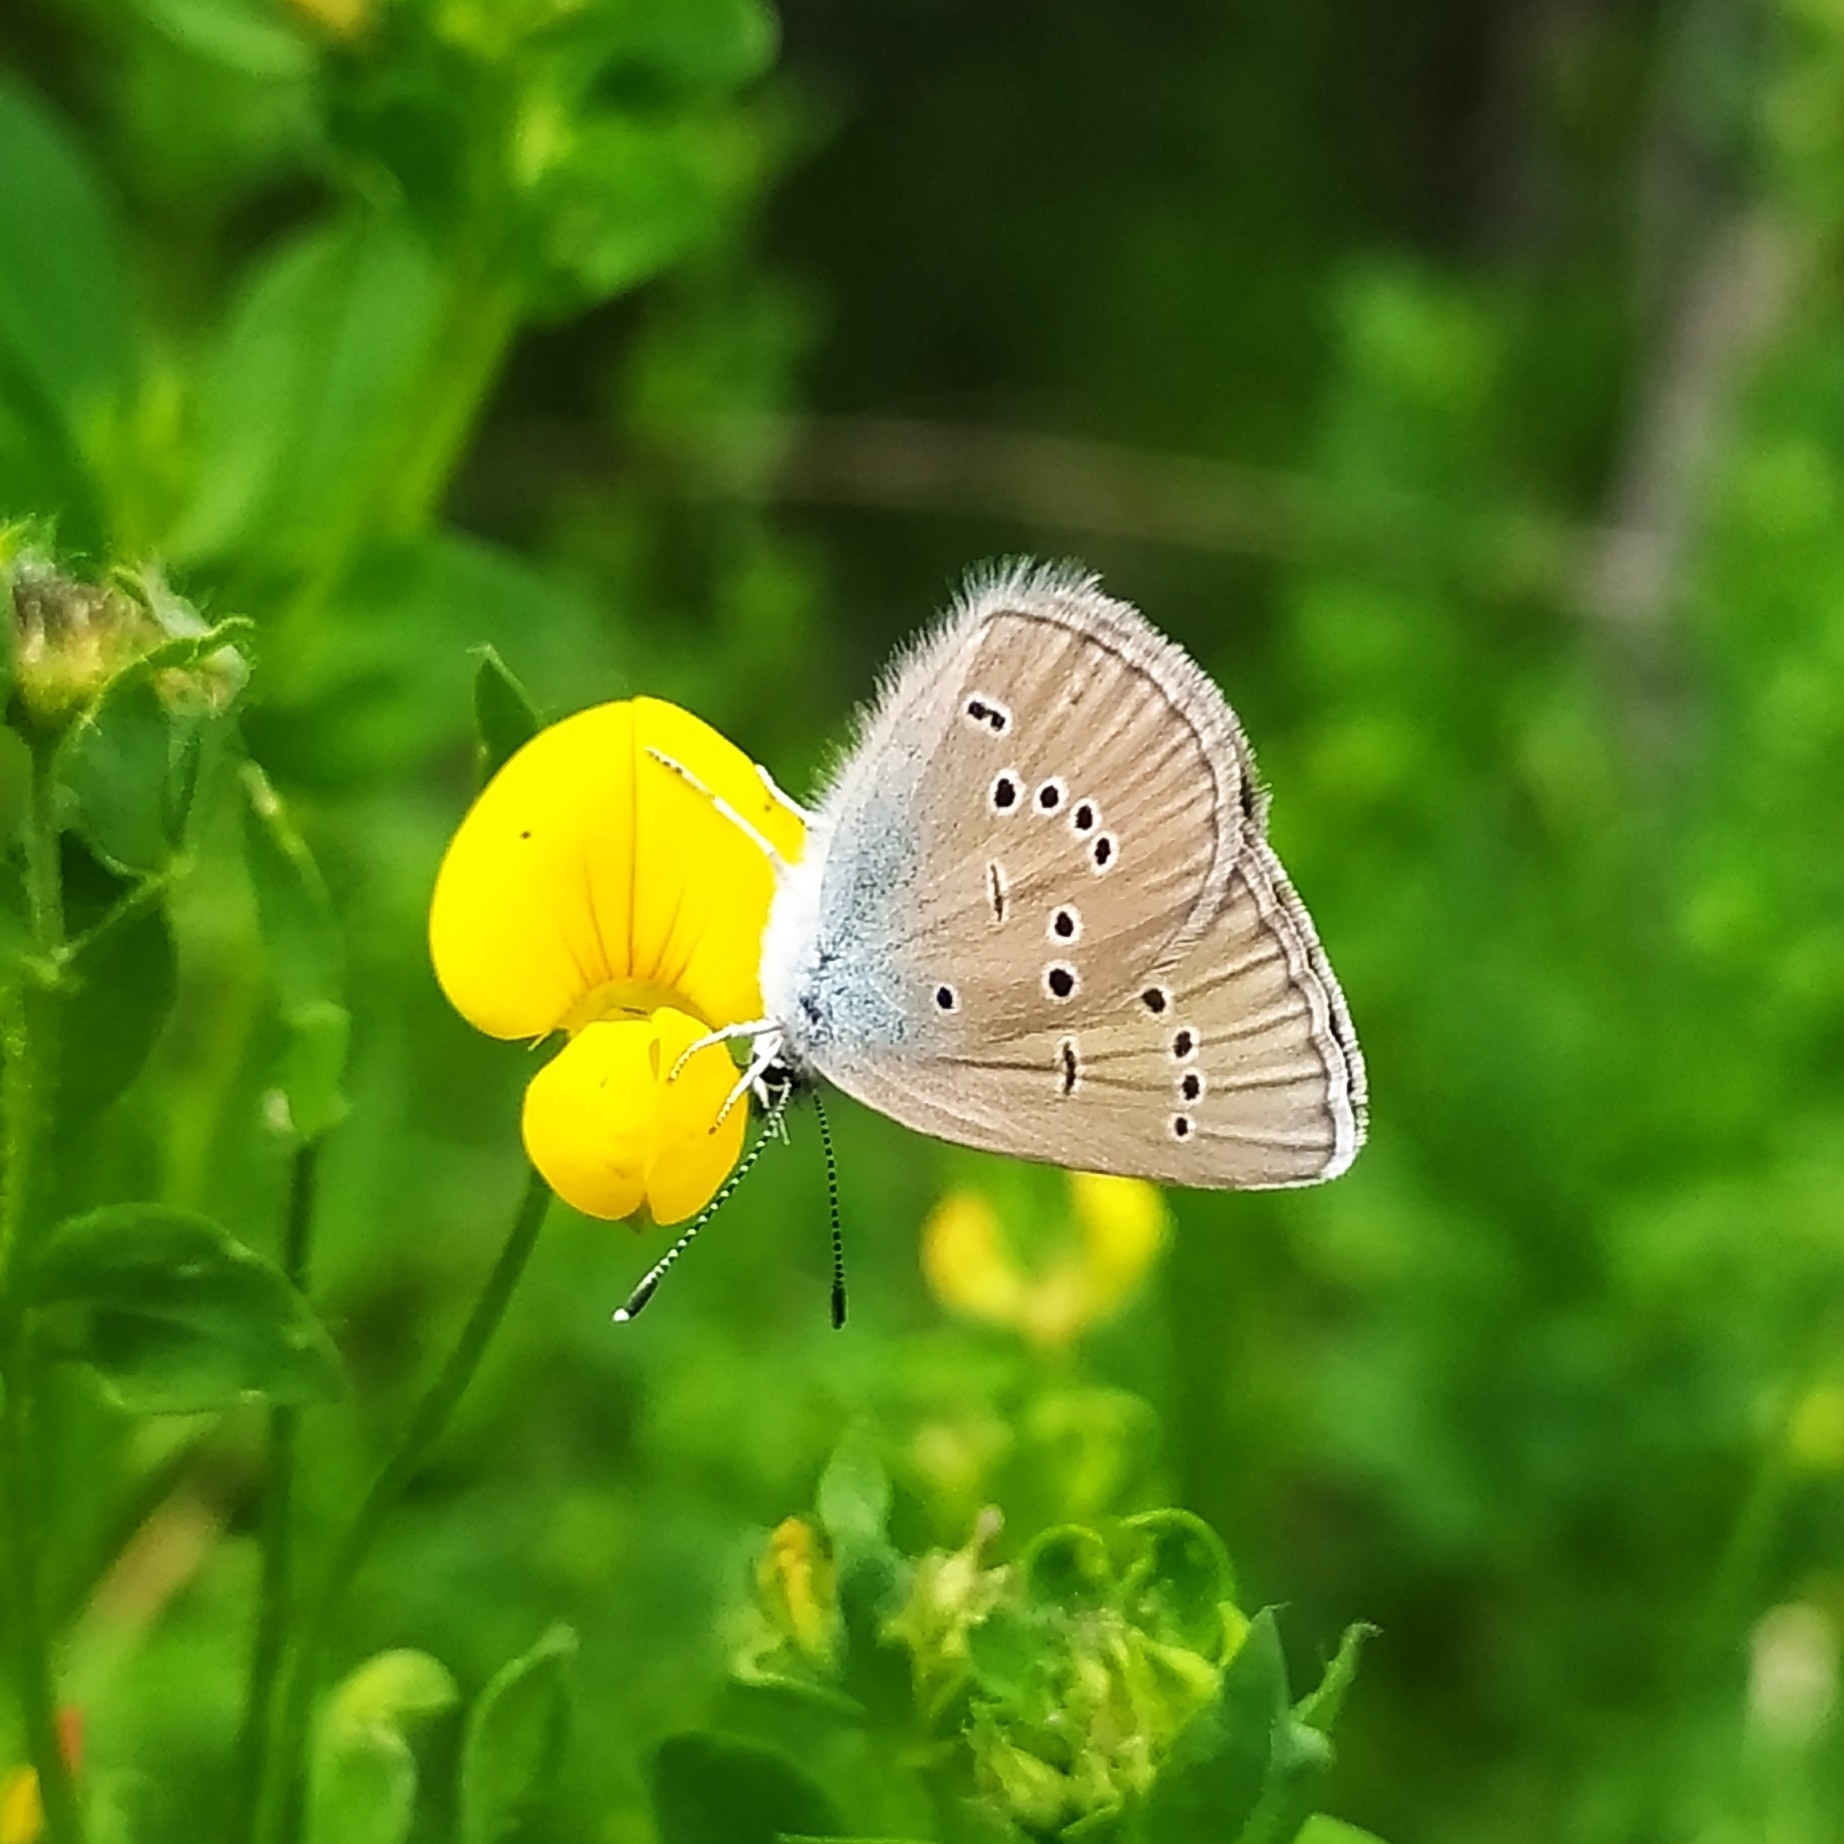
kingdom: Animalia
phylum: Arthropoda
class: Insecta
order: Lepidoptera
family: Lycaenidae
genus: Cyaniris
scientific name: Cyaniris semiargus
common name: Mazarine blue
